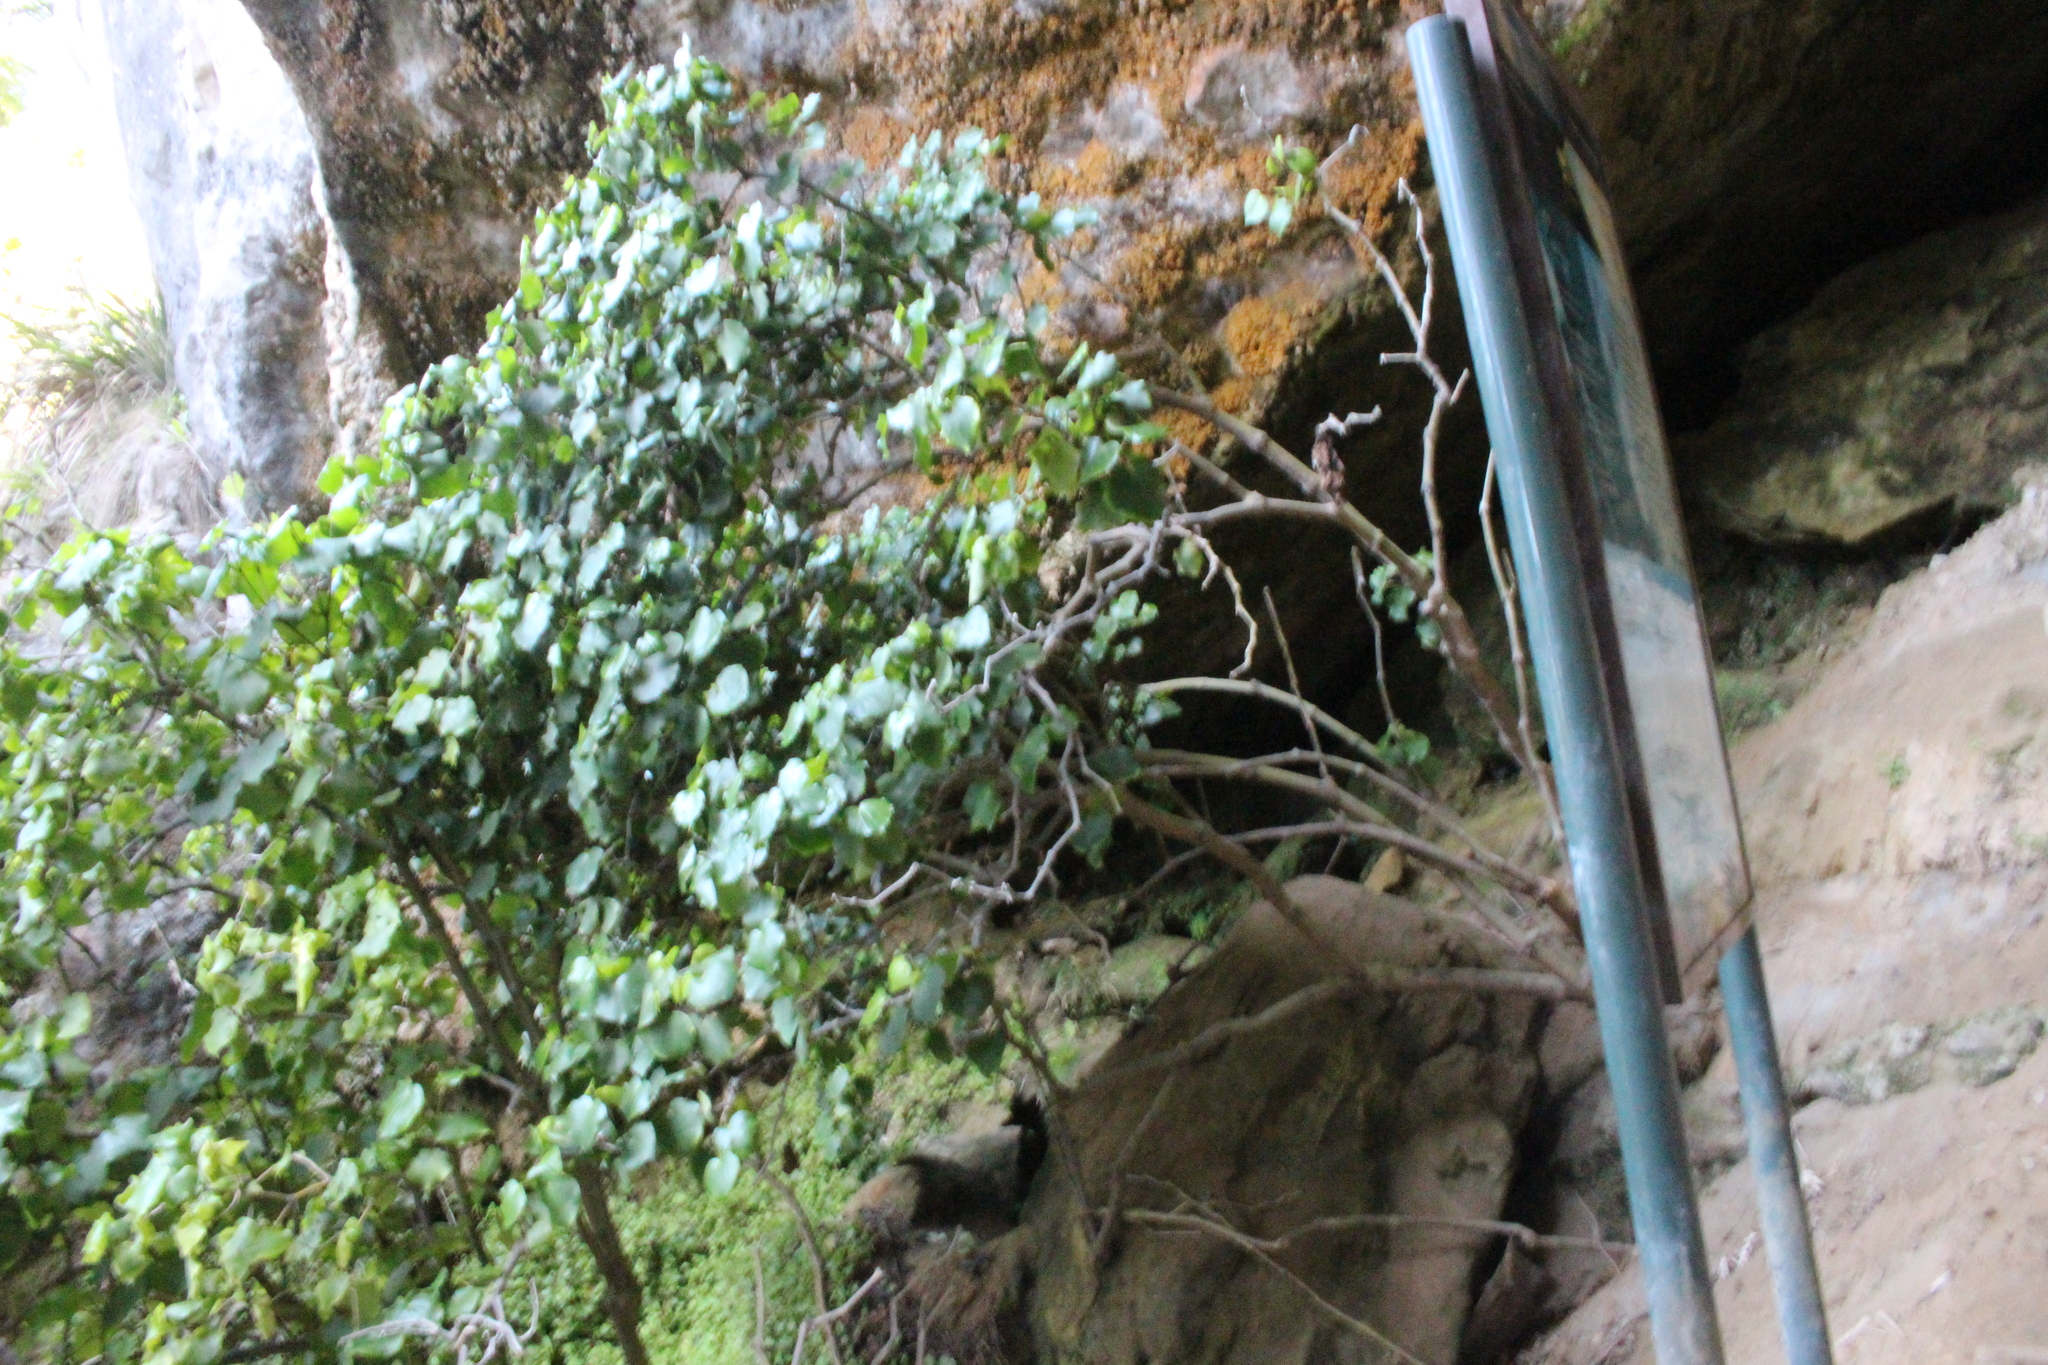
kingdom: Plantae
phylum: Tracheophyta
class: Magnoliopsida
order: Piperales
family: Piperaceae
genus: Macropiper
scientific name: Macropiper excelsum
